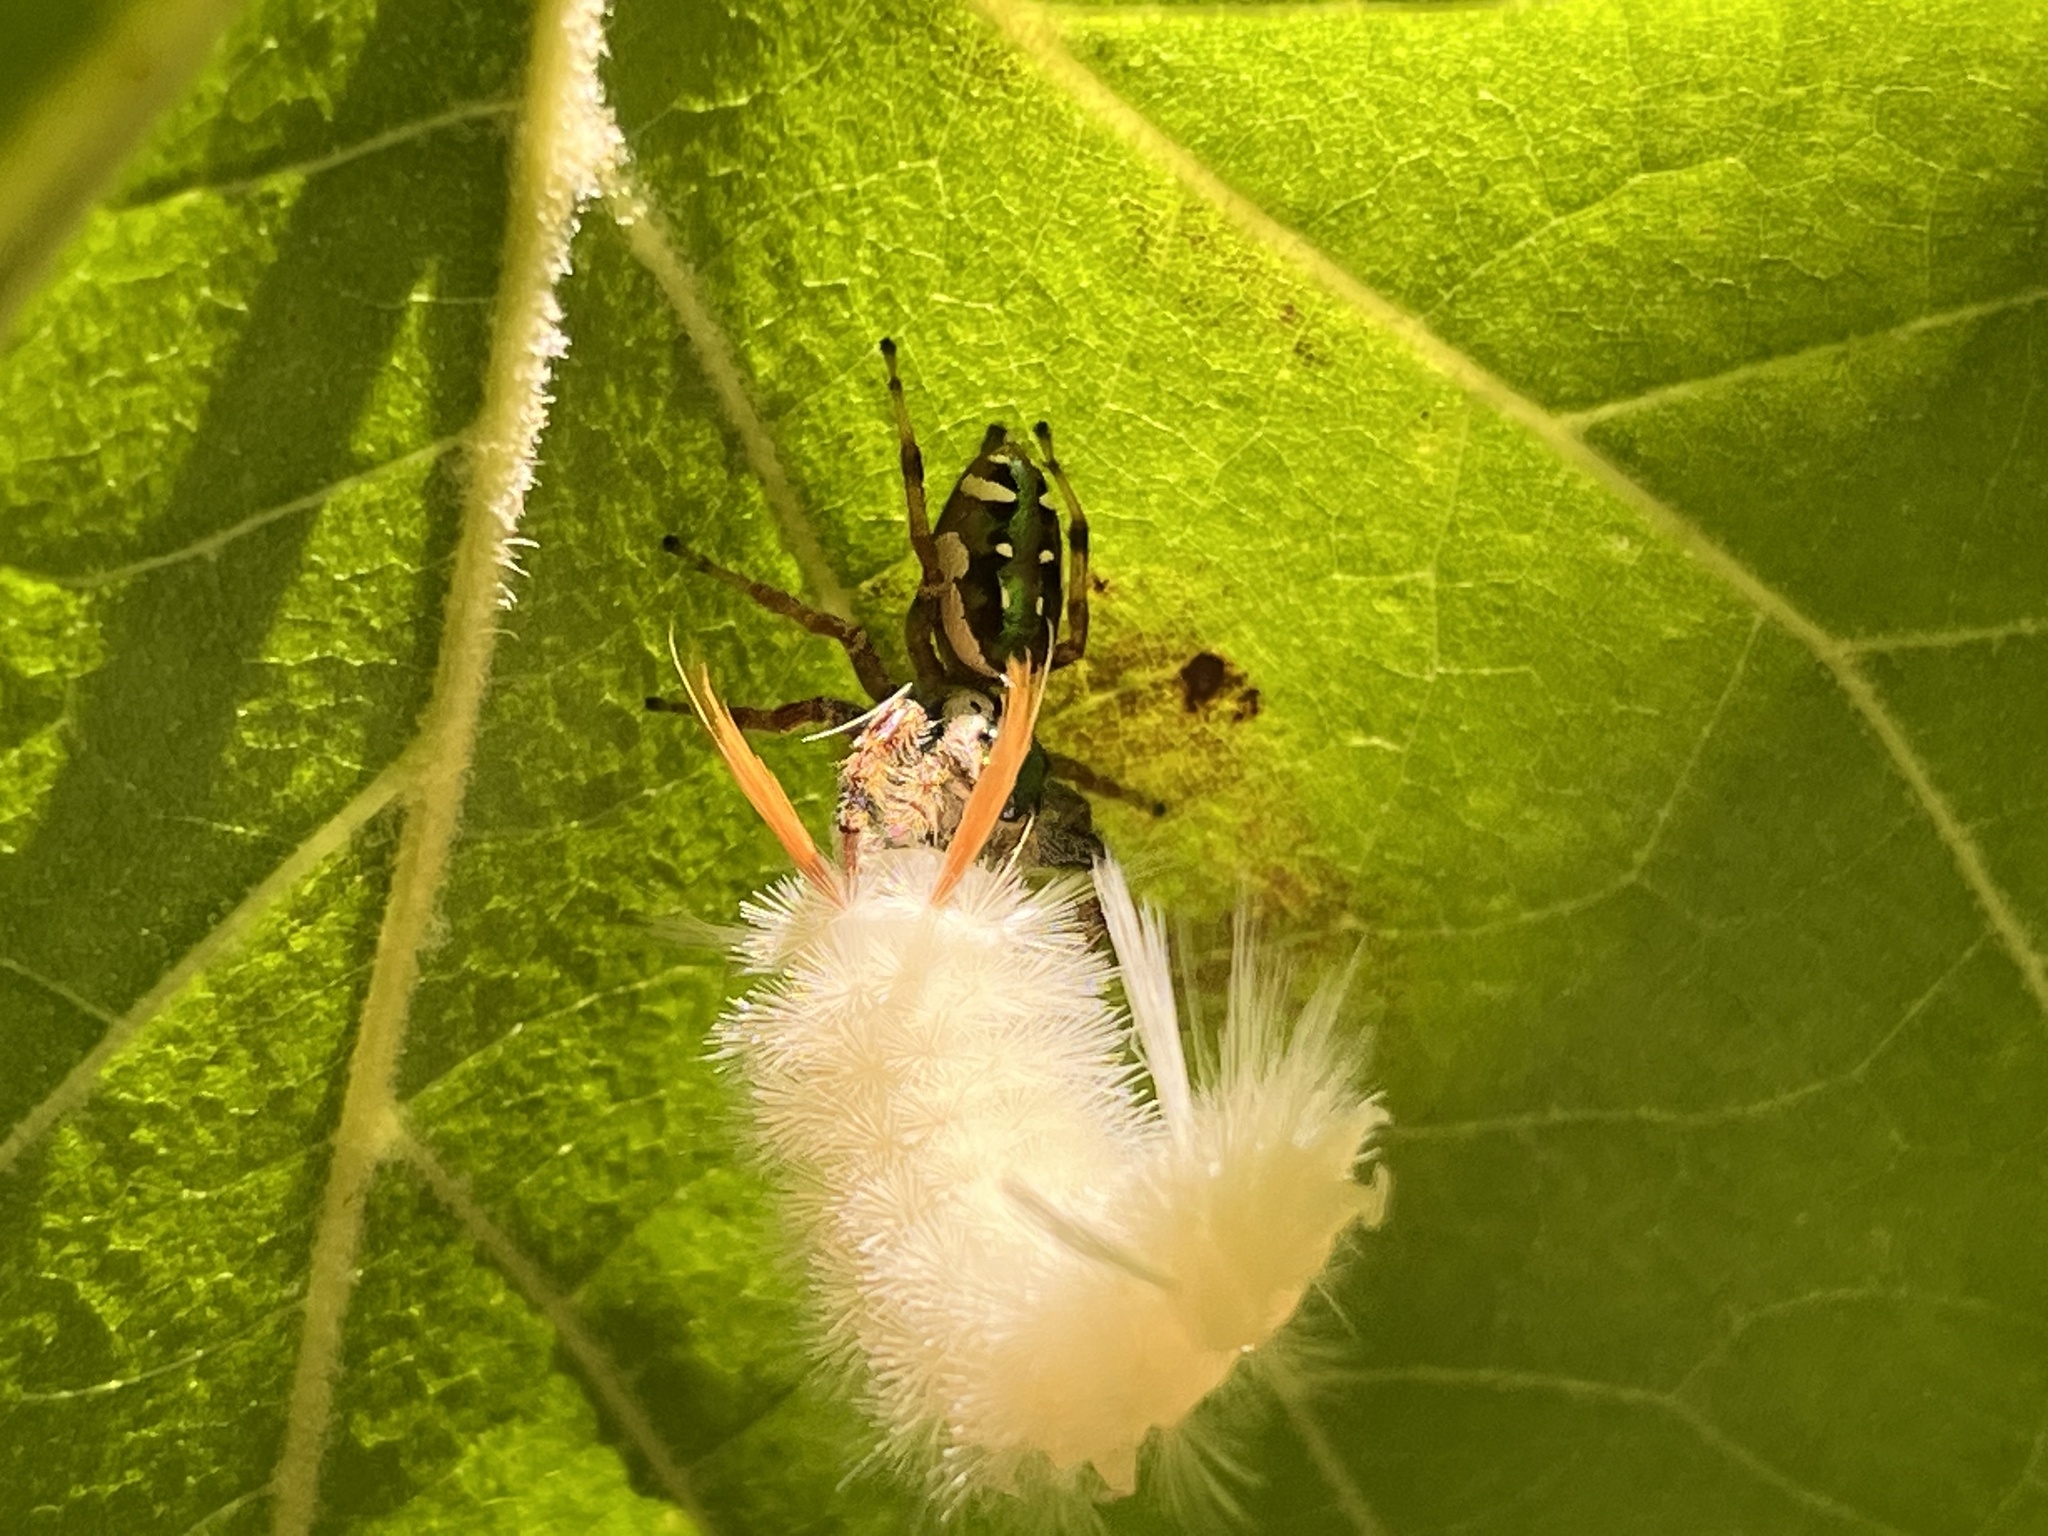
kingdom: Animalia
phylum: Arthropoda
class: Insecta
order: Lepidoptera
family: Erebidae
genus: Halysidota
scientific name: Halysidota harrisii
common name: Sycamore tussock moth
